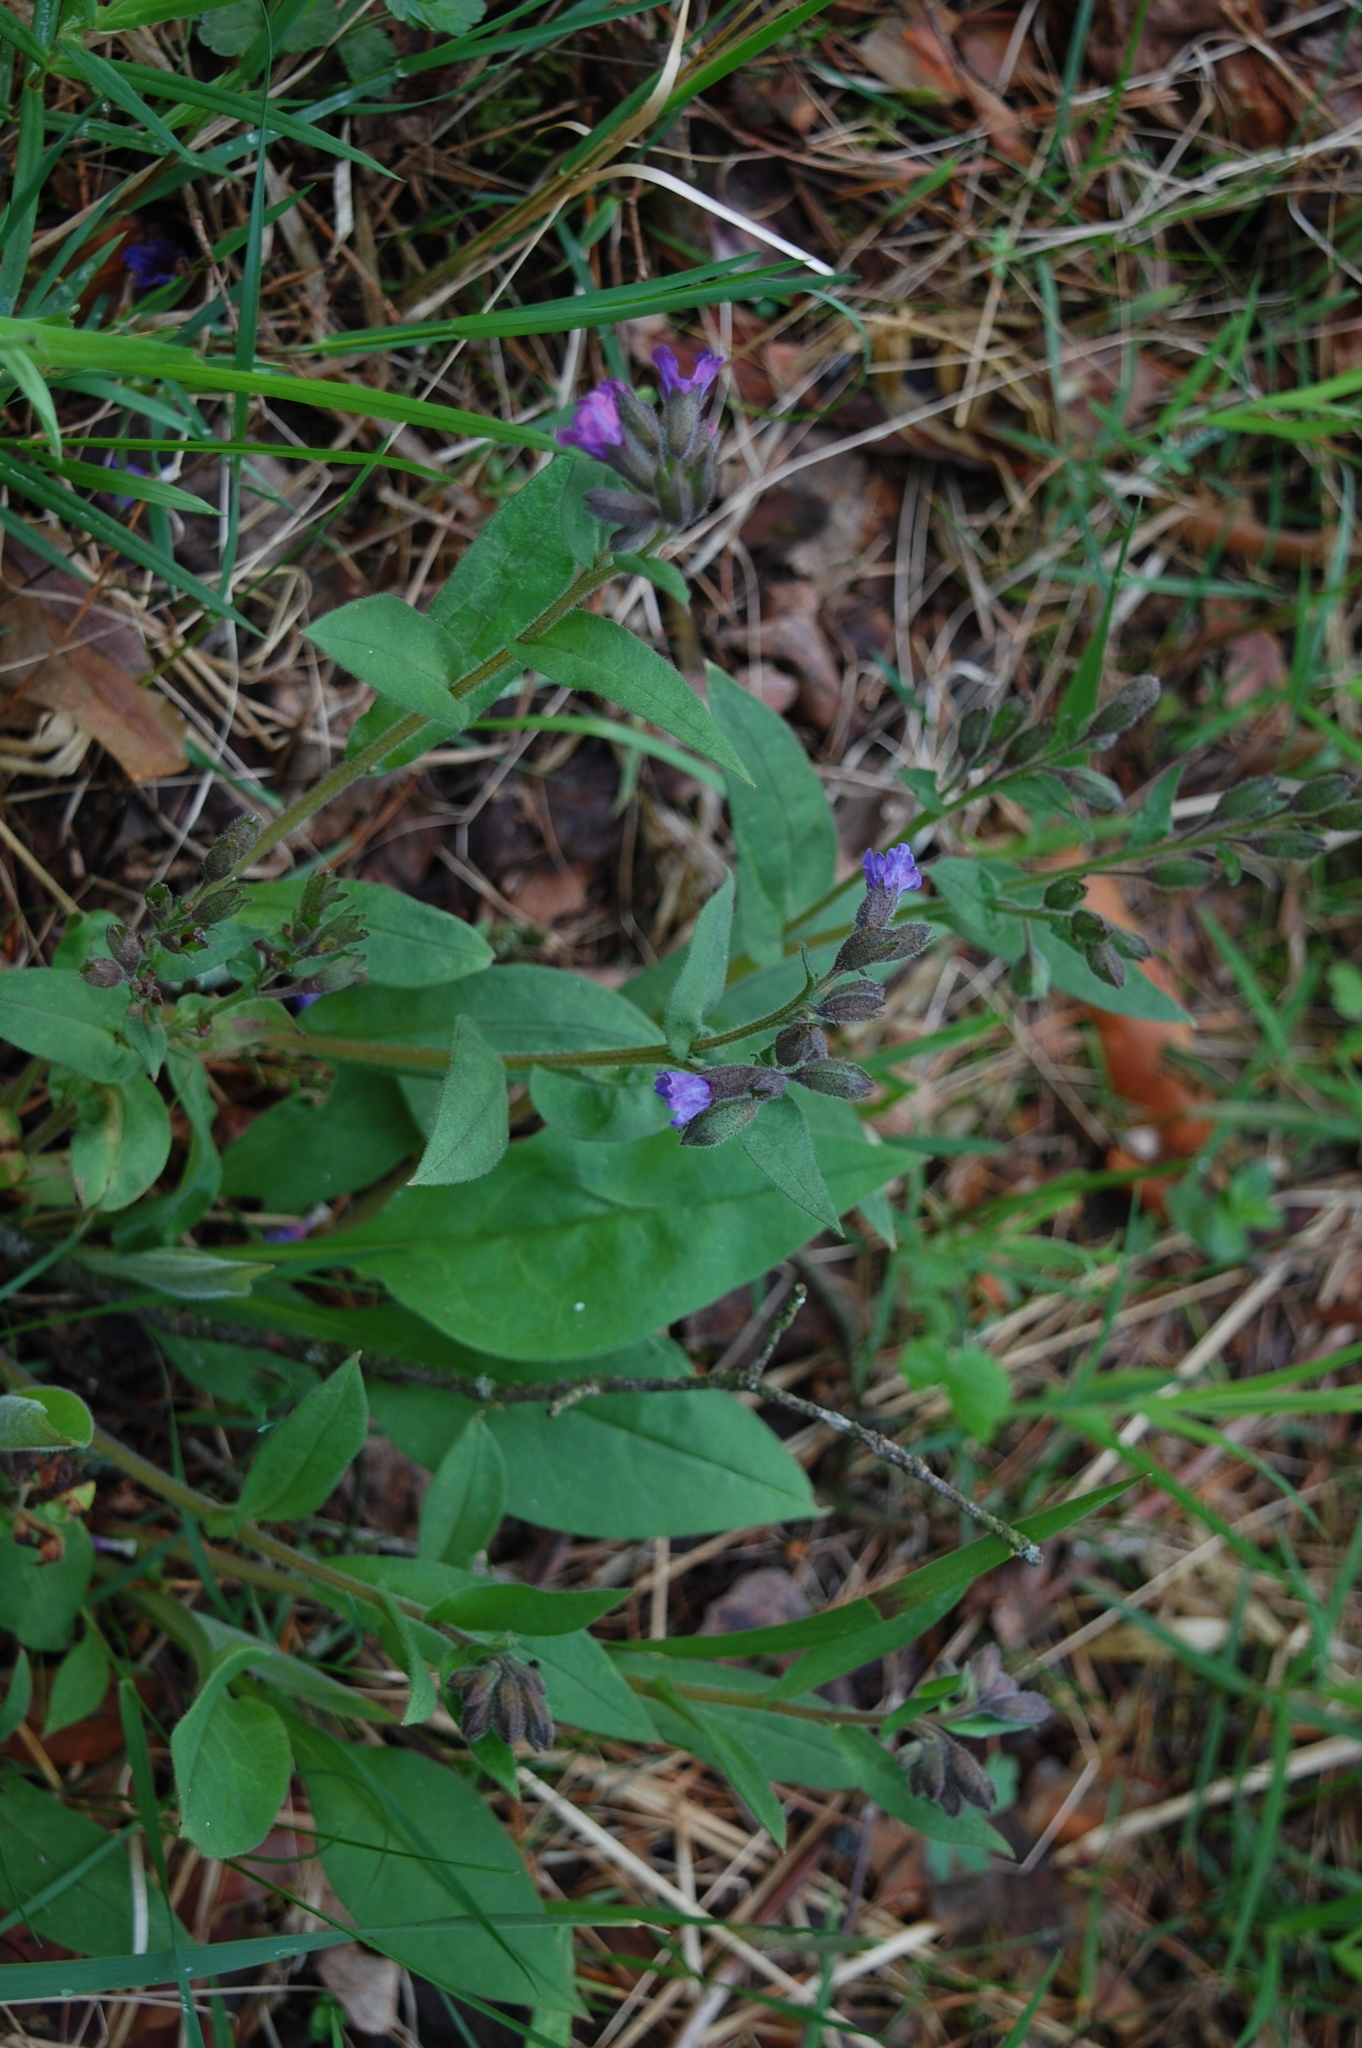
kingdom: Plantae
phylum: Tracheophyta
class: Magnoliopsida
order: Boraginales
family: Boraginaceae
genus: Pulmonaria
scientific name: Pulmonaria obscura
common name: Suffolk lungwort
